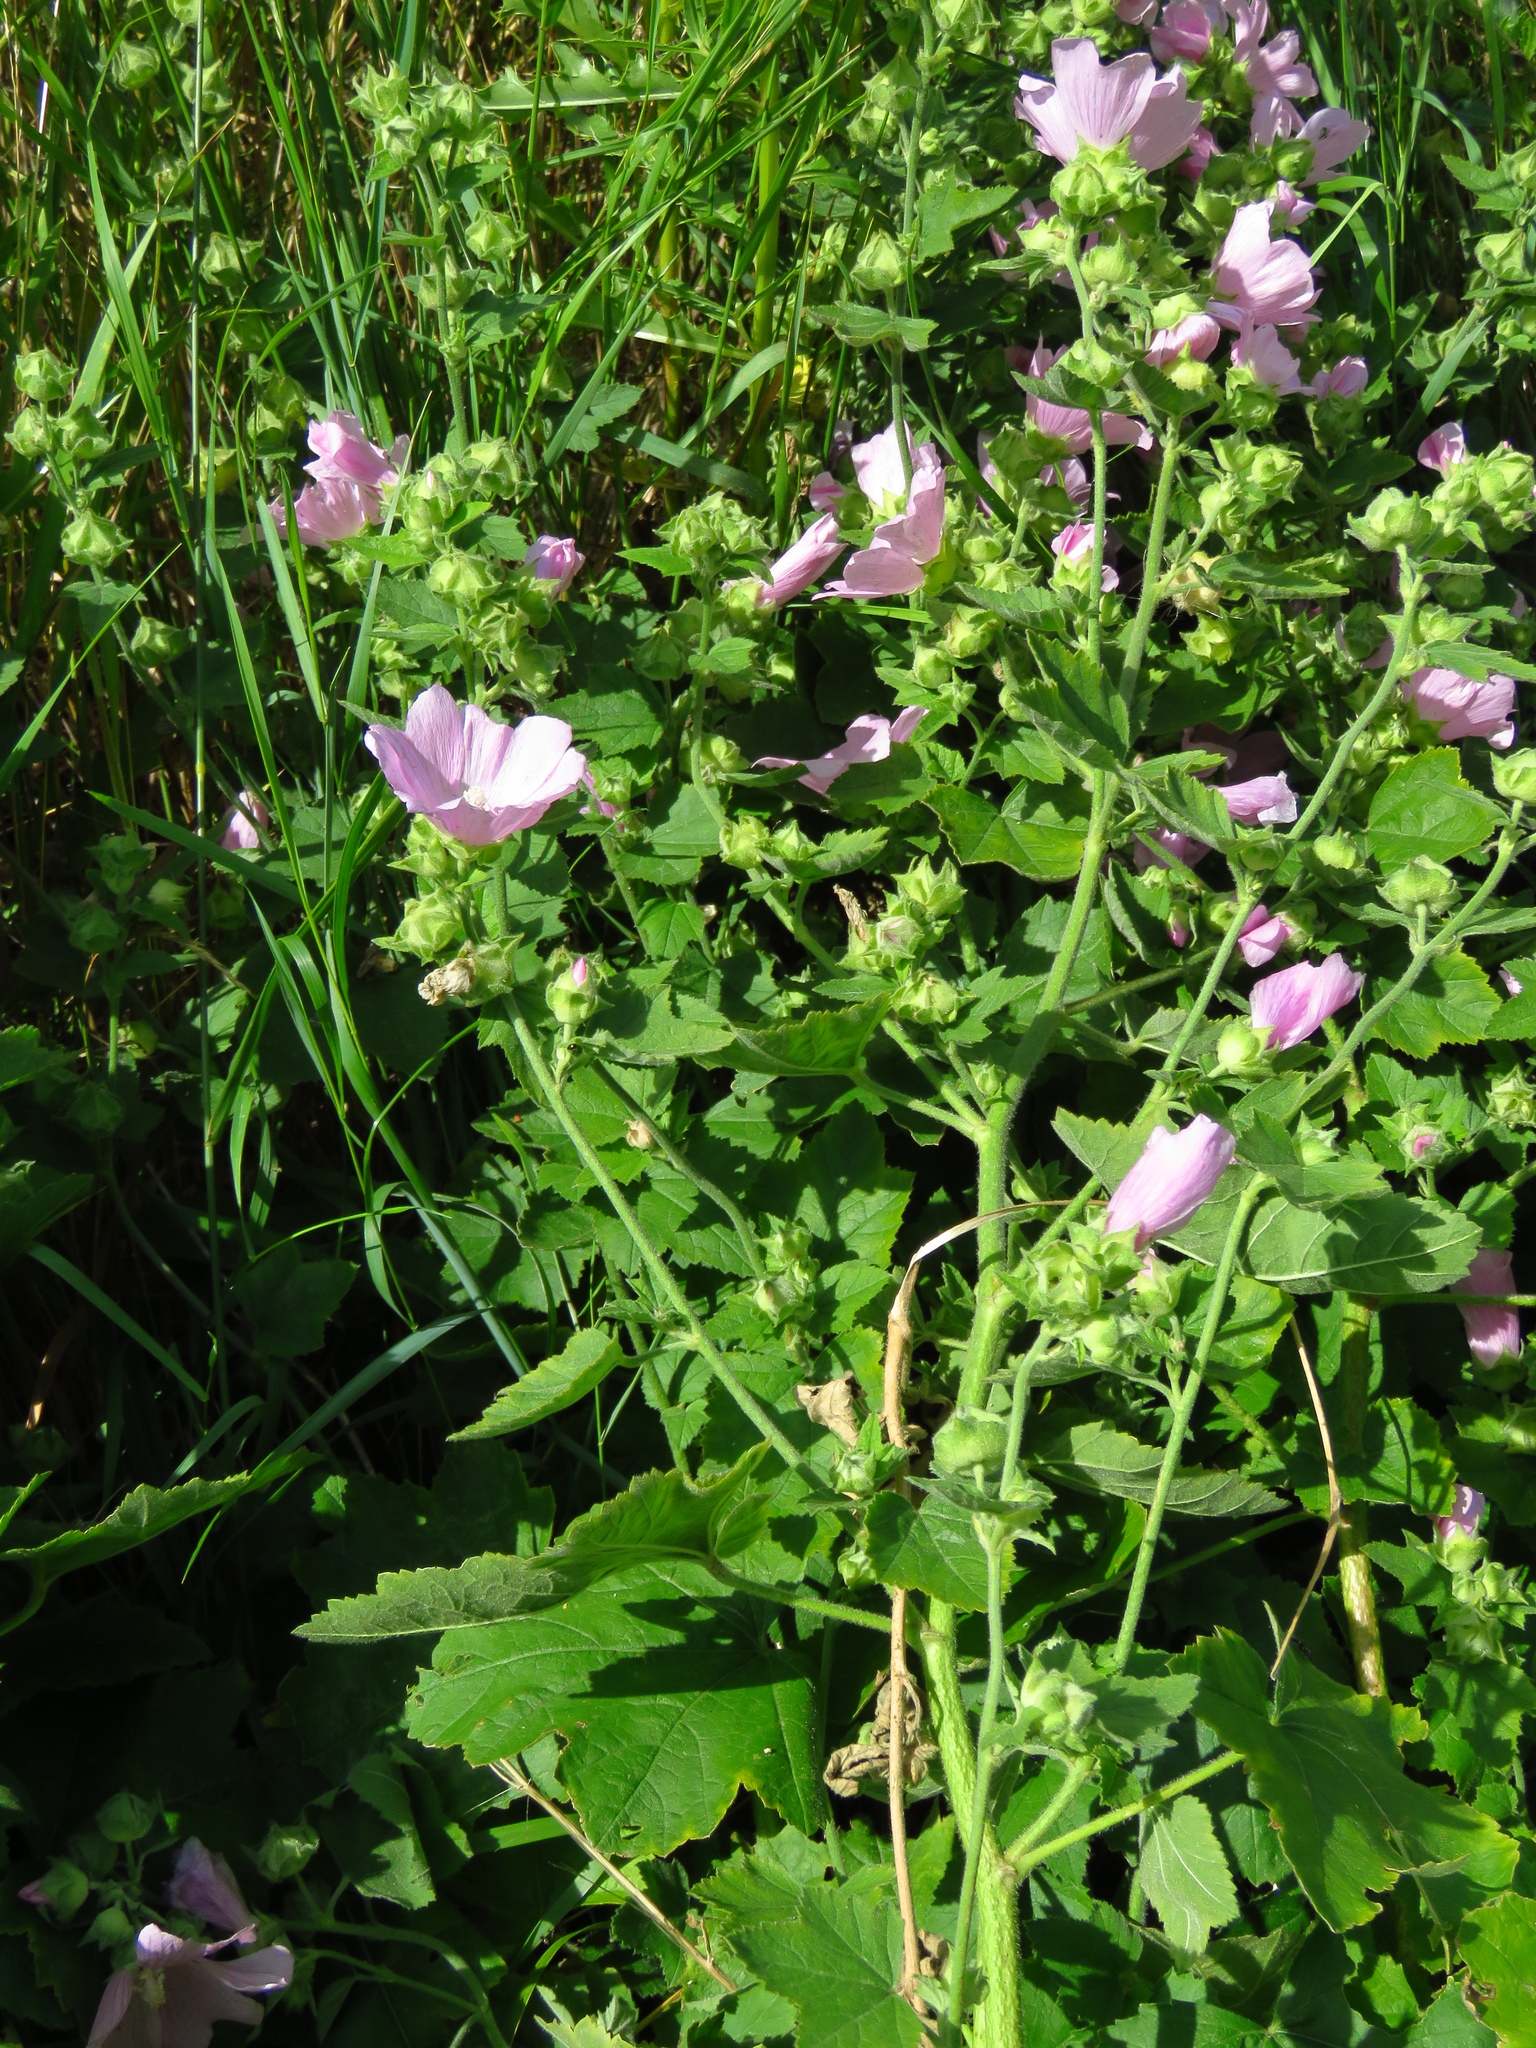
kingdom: Plantae
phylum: Tracheophyta
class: Magnoliopsida
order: Malvales
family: Malvaceae
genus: Malva
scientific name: Malva thuringiaca
